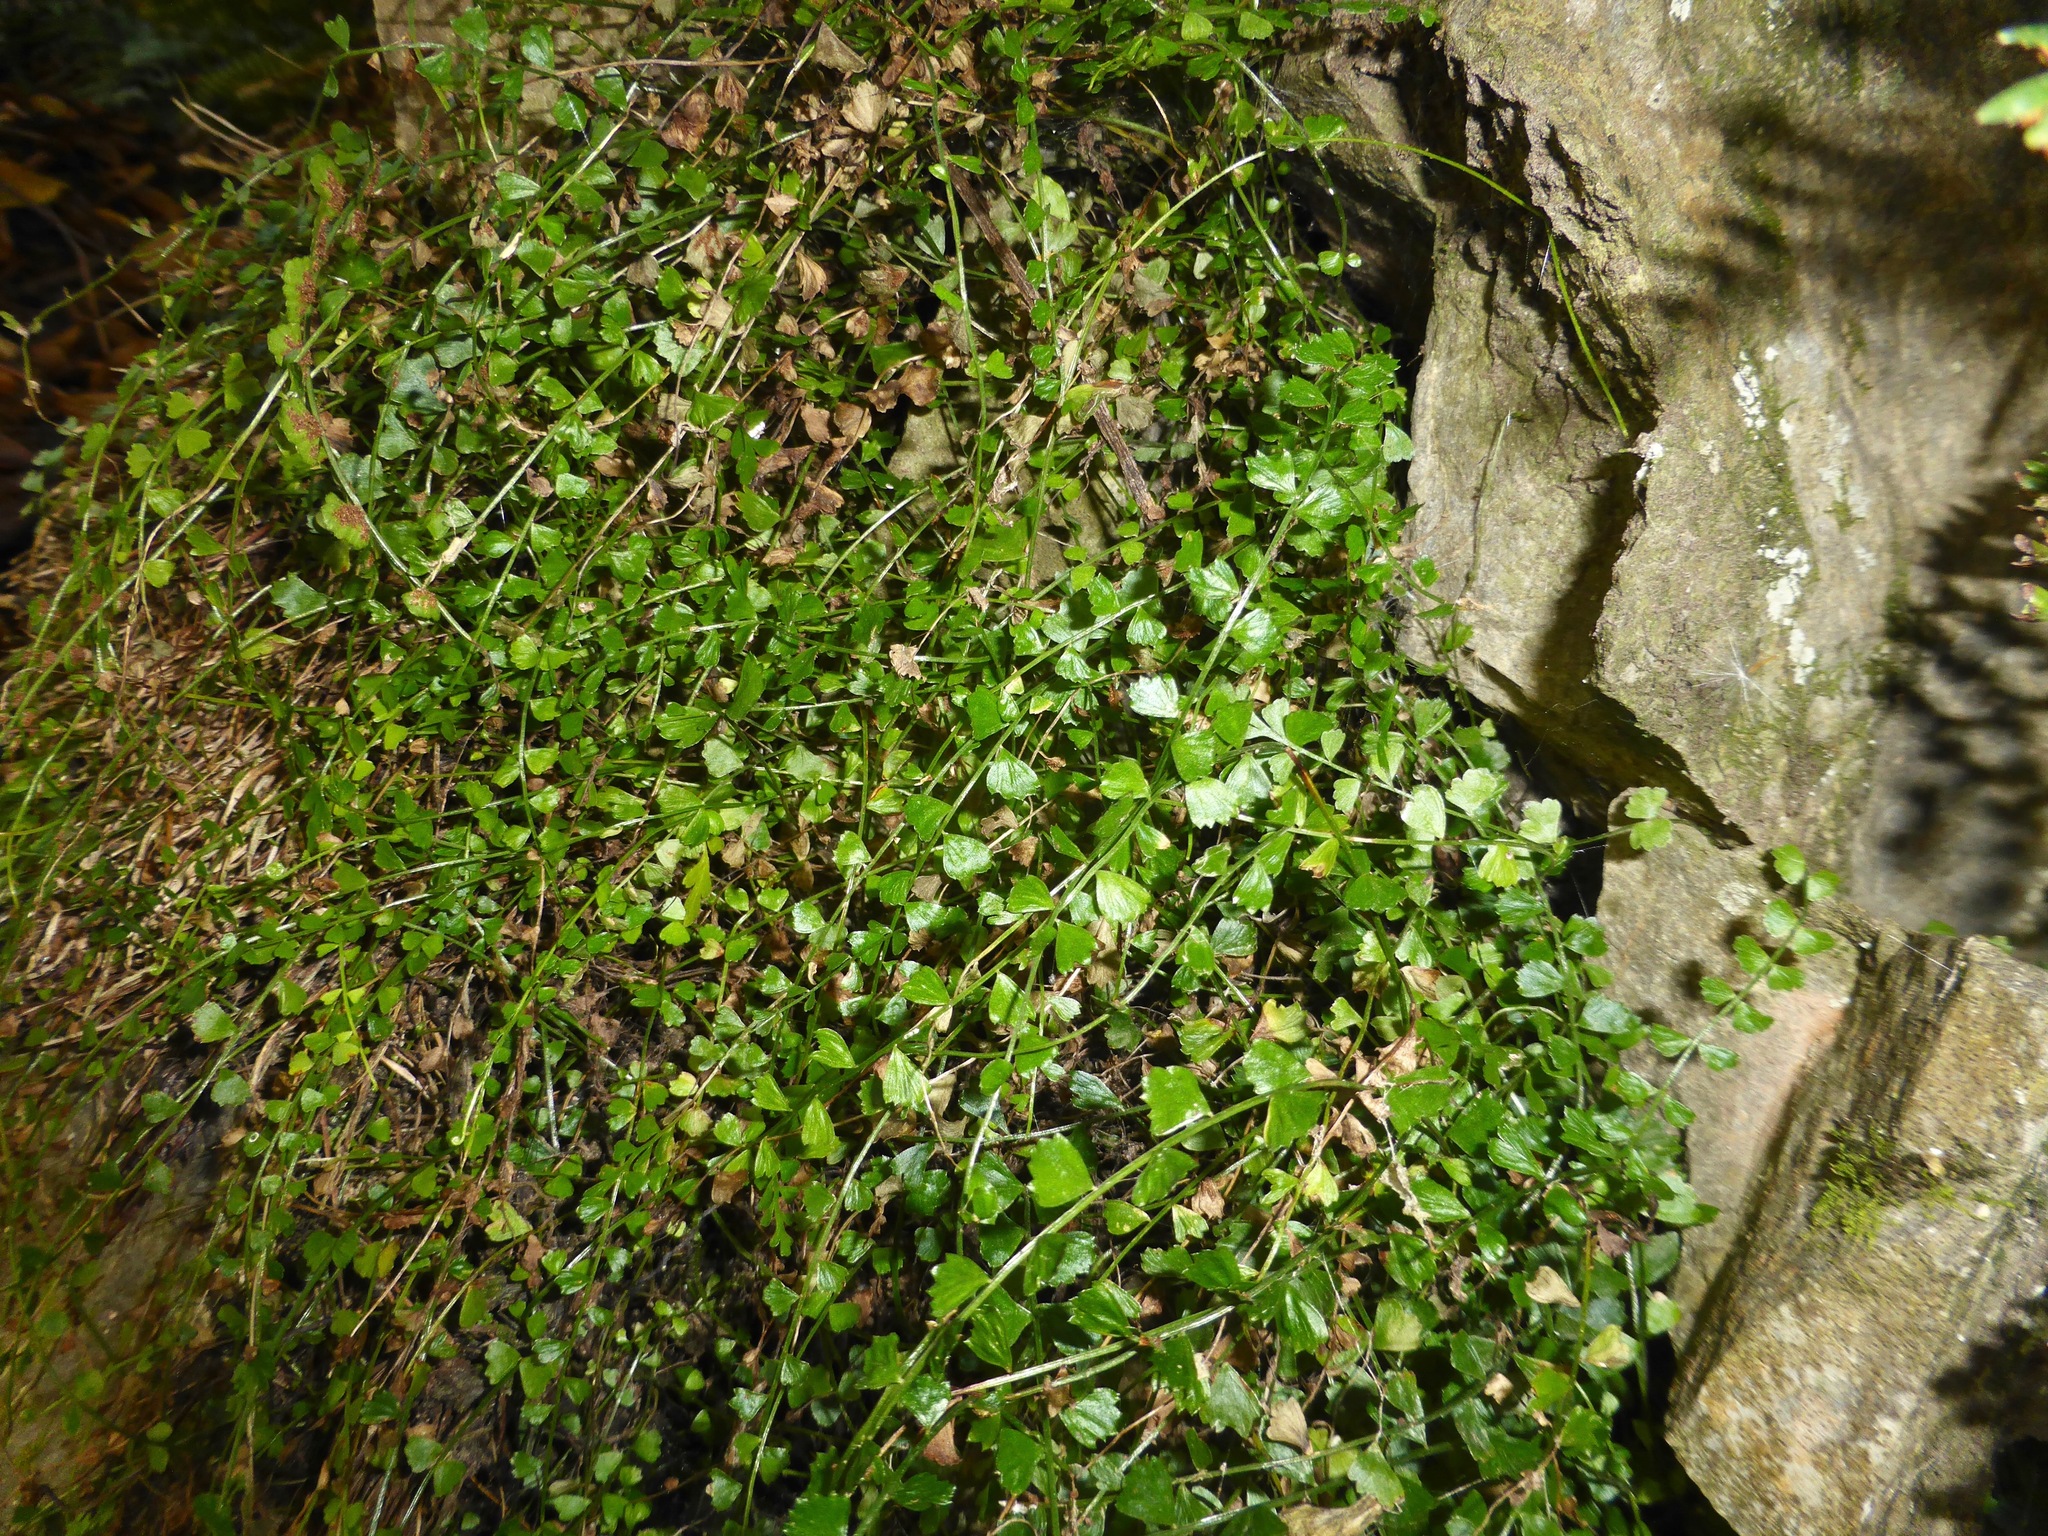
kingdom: Plantae
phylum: Tracheophyta
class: Polypodiopsida
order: Polypodiales
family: Aspleniaceae
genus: Asplenium
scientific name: Asplenium flabellifolium
